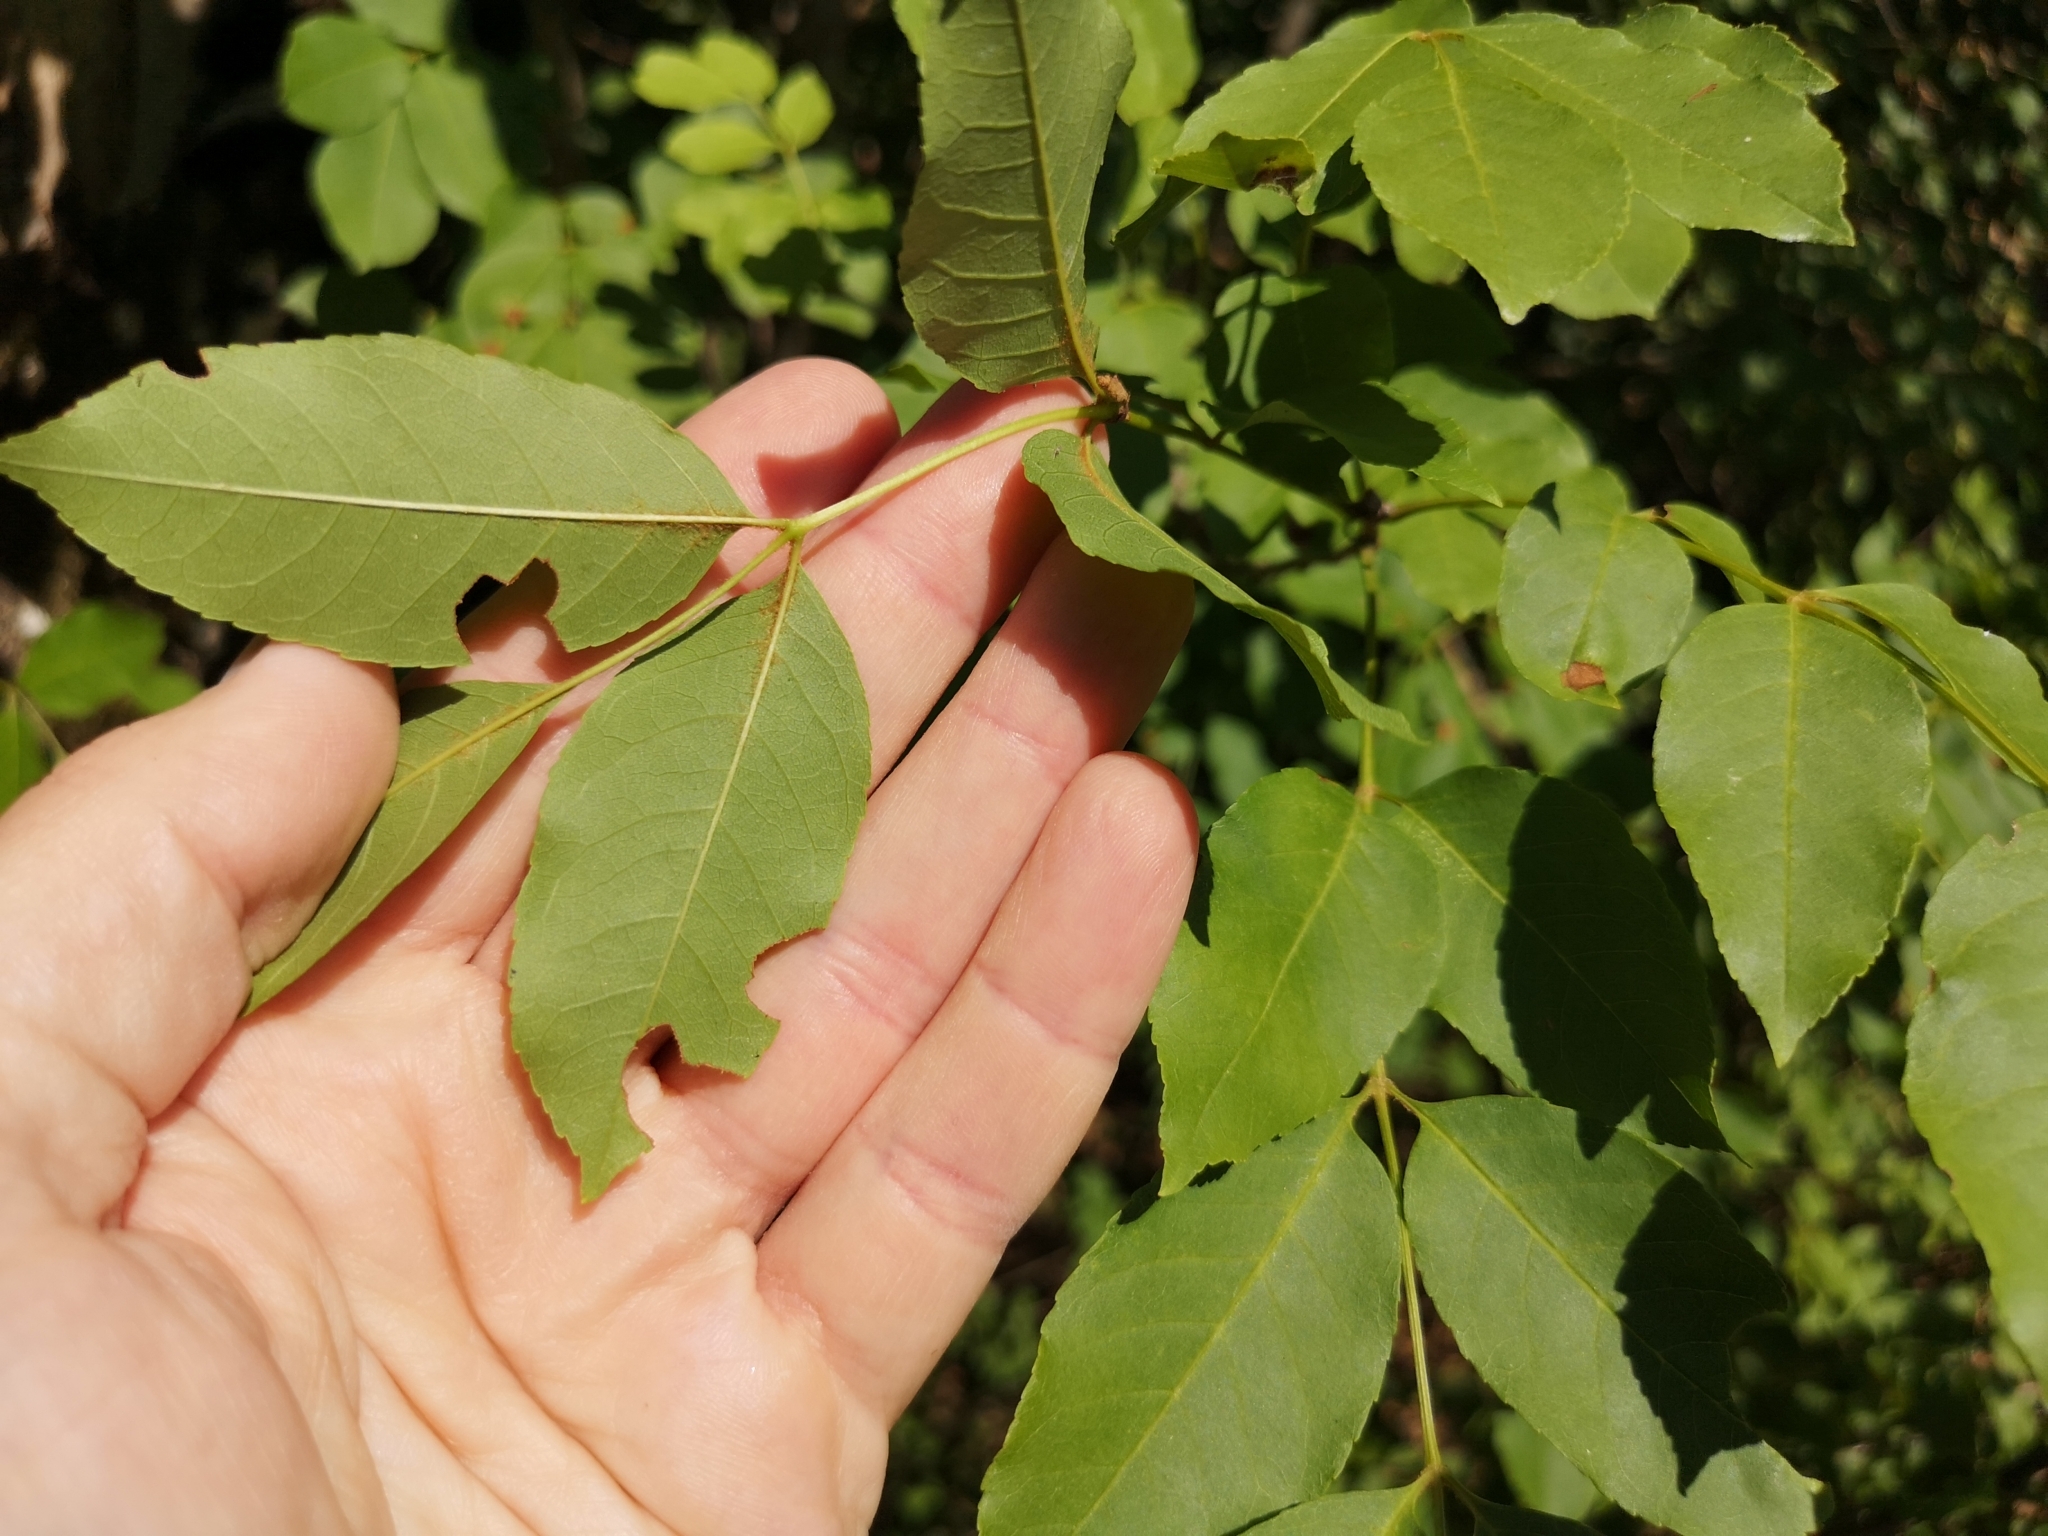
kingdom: Plantae
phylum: Tracheophyta
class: Magnoliopsida
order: Lamiales
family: Oleaceae
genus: Fraxinus
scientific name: Fraxinus ornus
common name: Manna ash
